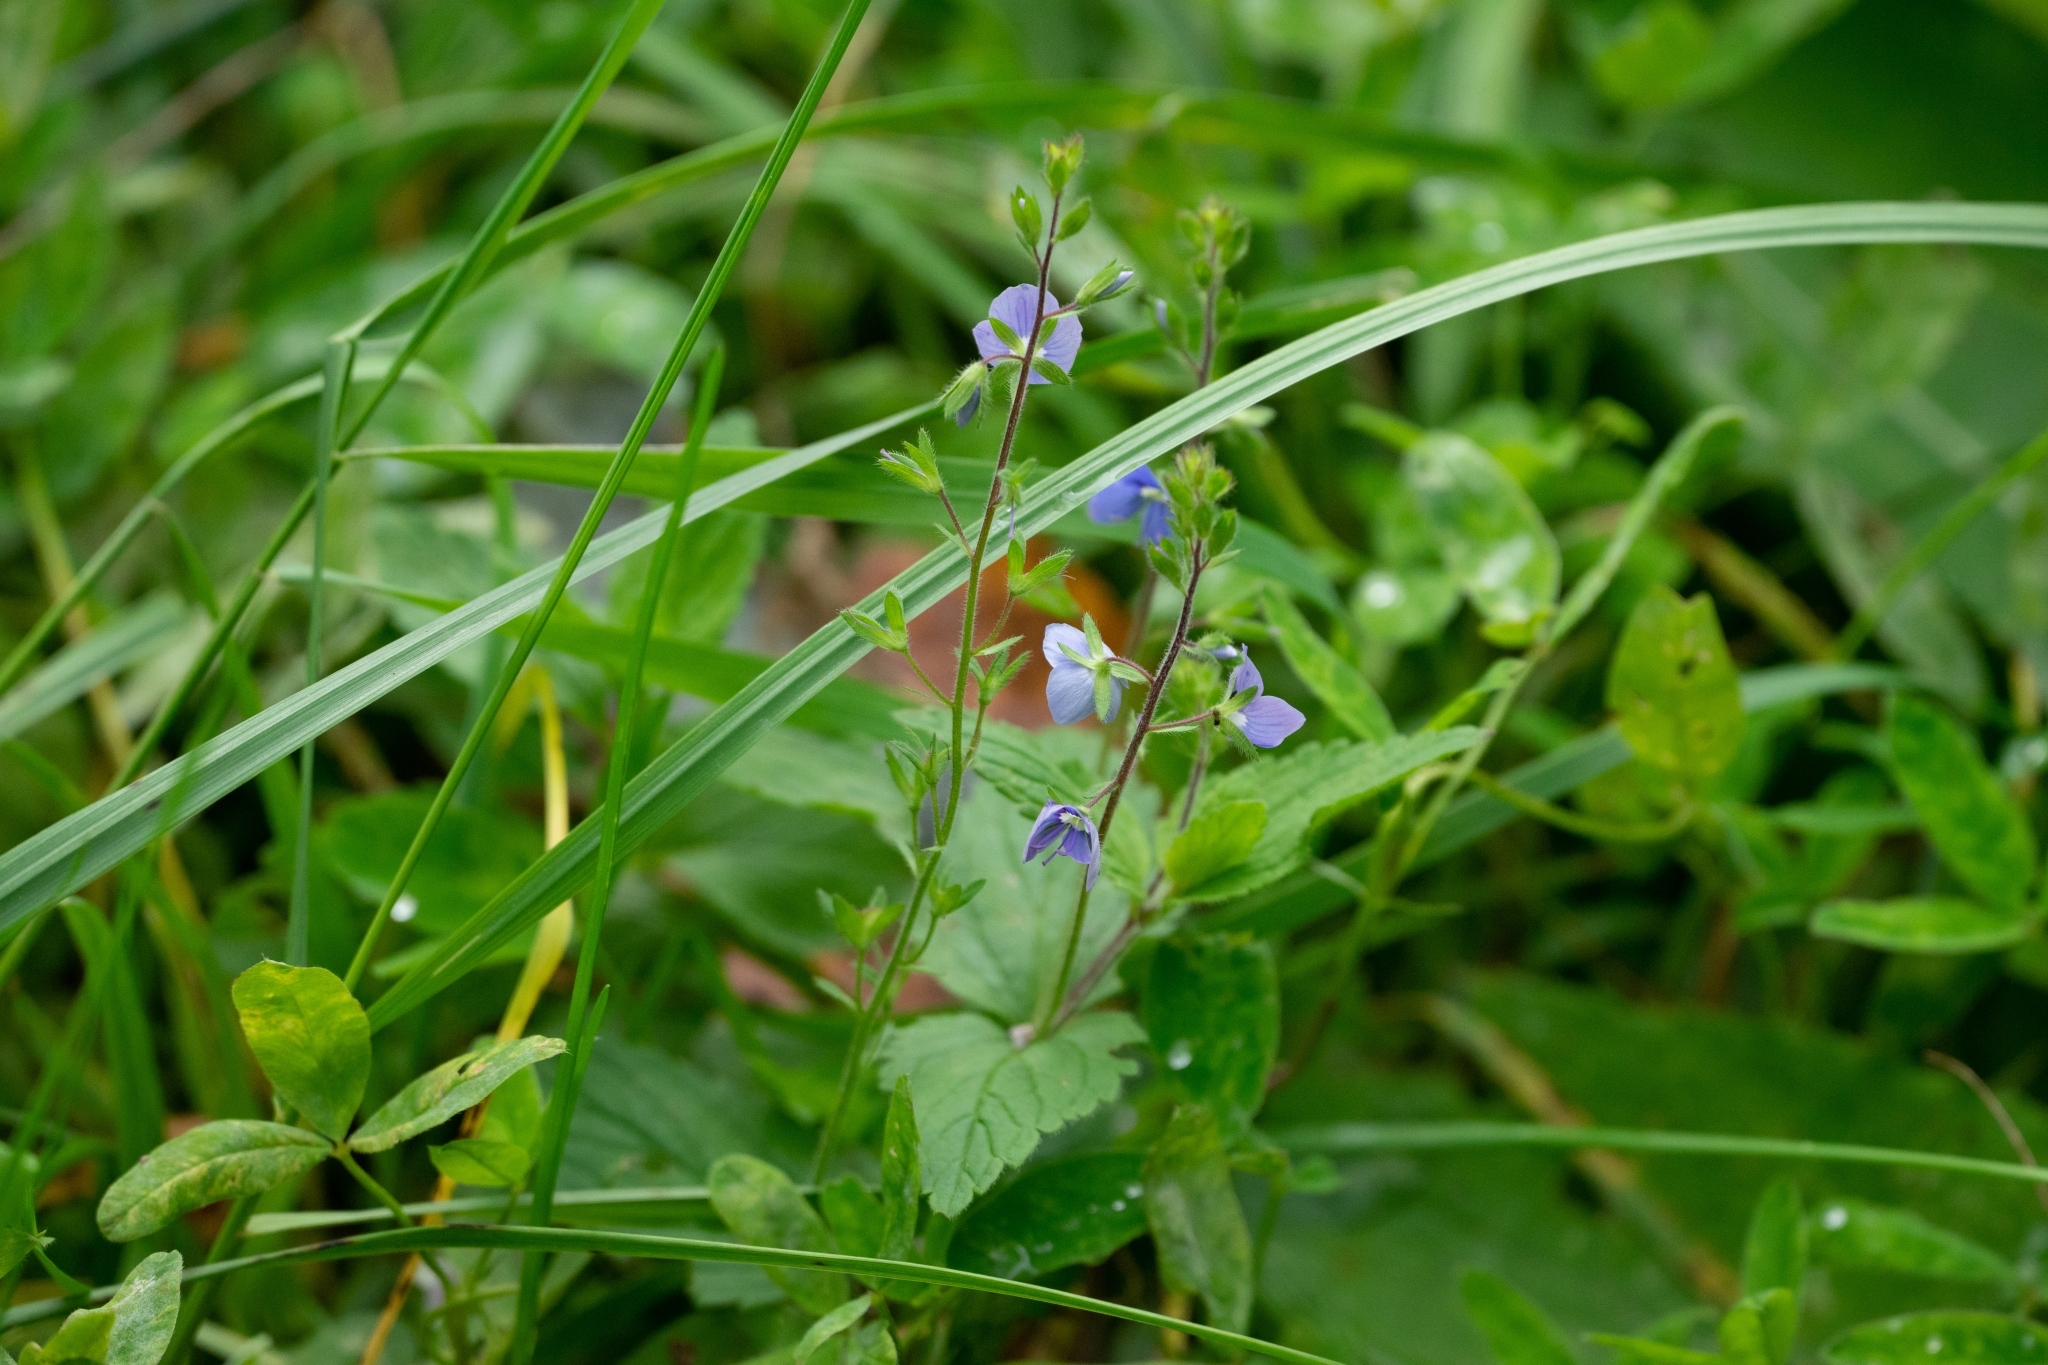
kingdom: Plantae
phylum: Tracheophyta
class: Magnoliopsida
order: Lamiales
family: Plantaginaceae
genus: Veronica
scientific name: Veronica chamaedrys
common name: Germander speedwell
